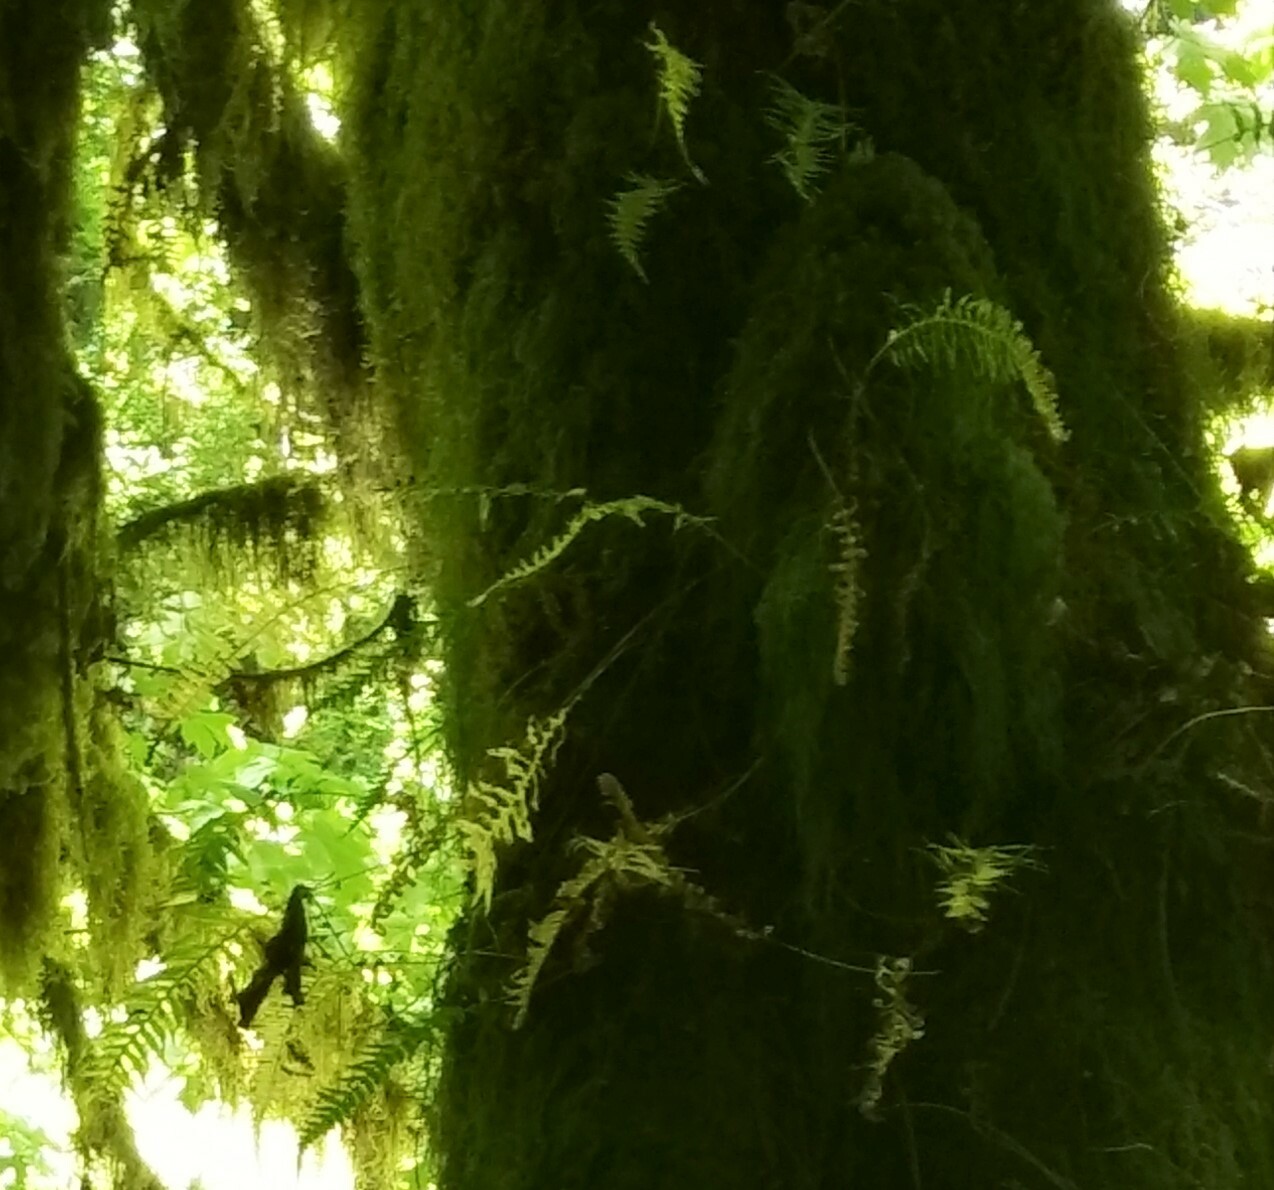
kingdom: Plantae
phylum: Tracheophyta
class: Polypodiopsida
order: Polypodiales
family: Polypodiaceae
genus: Polypodium
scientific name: Polypodium glycyrrhiza
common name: Licorice fern
